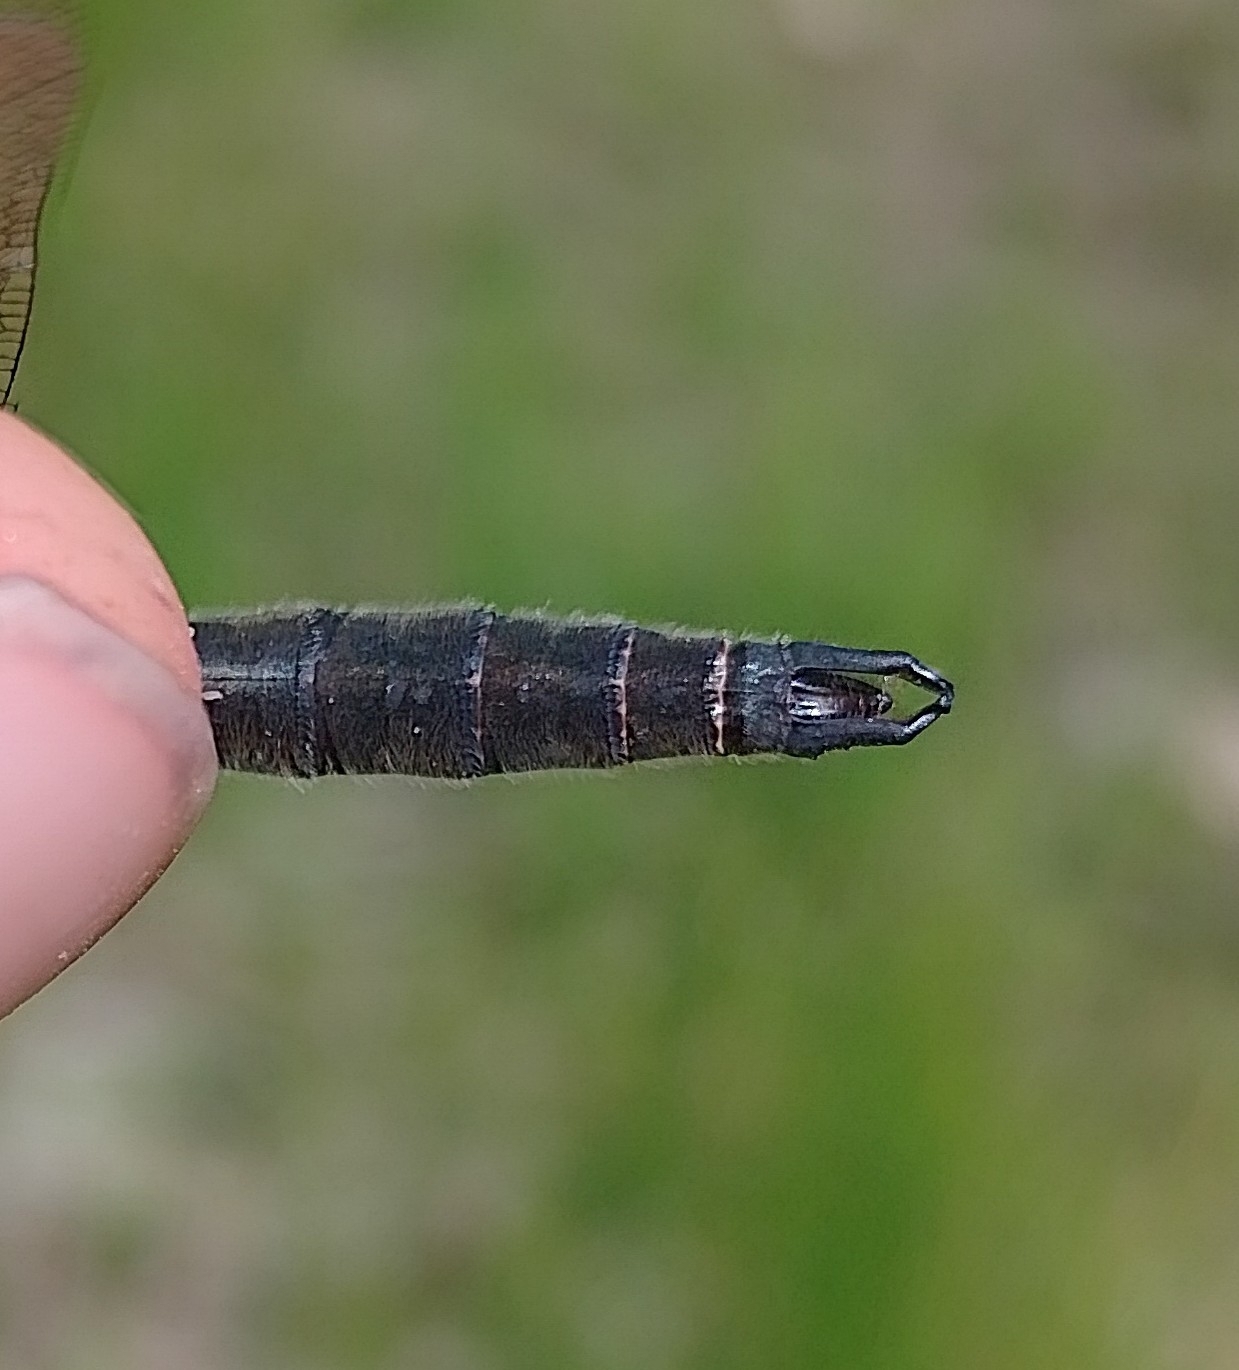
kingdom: Animalia
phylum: Arthropoda
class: Insecta
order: Odonata
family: Corduliidae
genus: Somatochlora
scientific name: Somatochlora alpestris
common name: Alpine emerald
